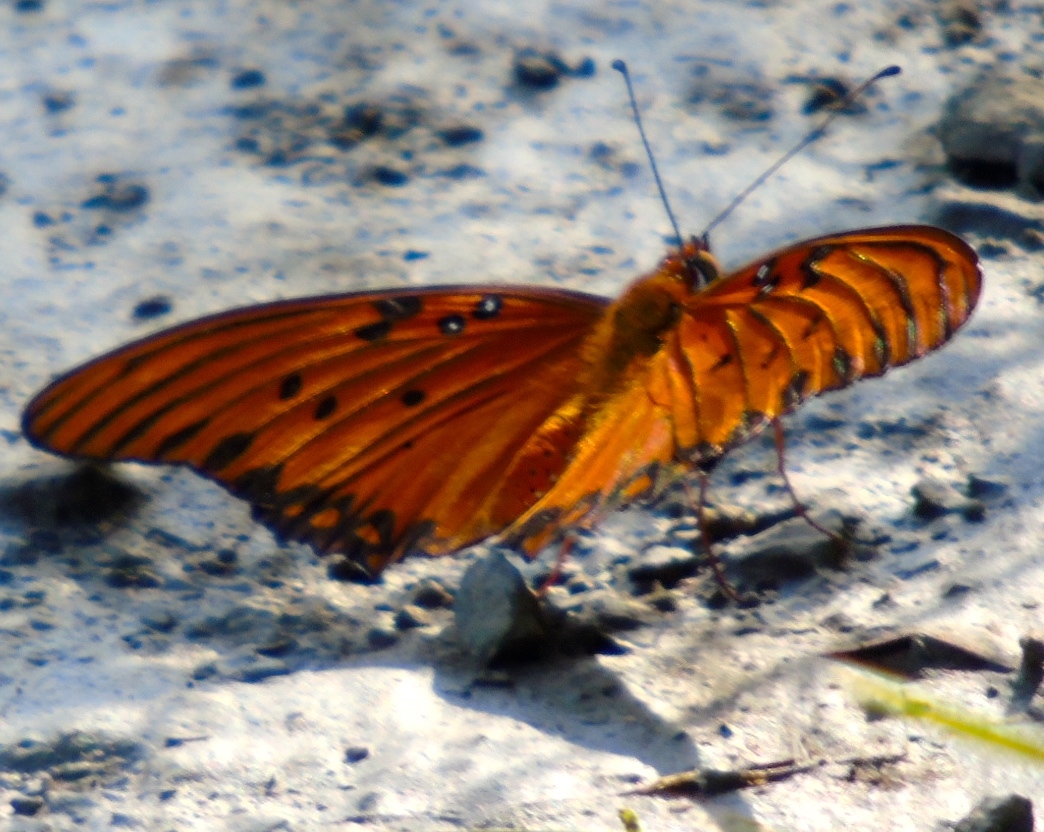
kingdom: Animalia
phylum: Arthropoda
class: Insecta
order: Lepidoptera
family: Nymphalidae
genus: Dione
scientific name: Dione vanillae
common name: Gulf fritillary
